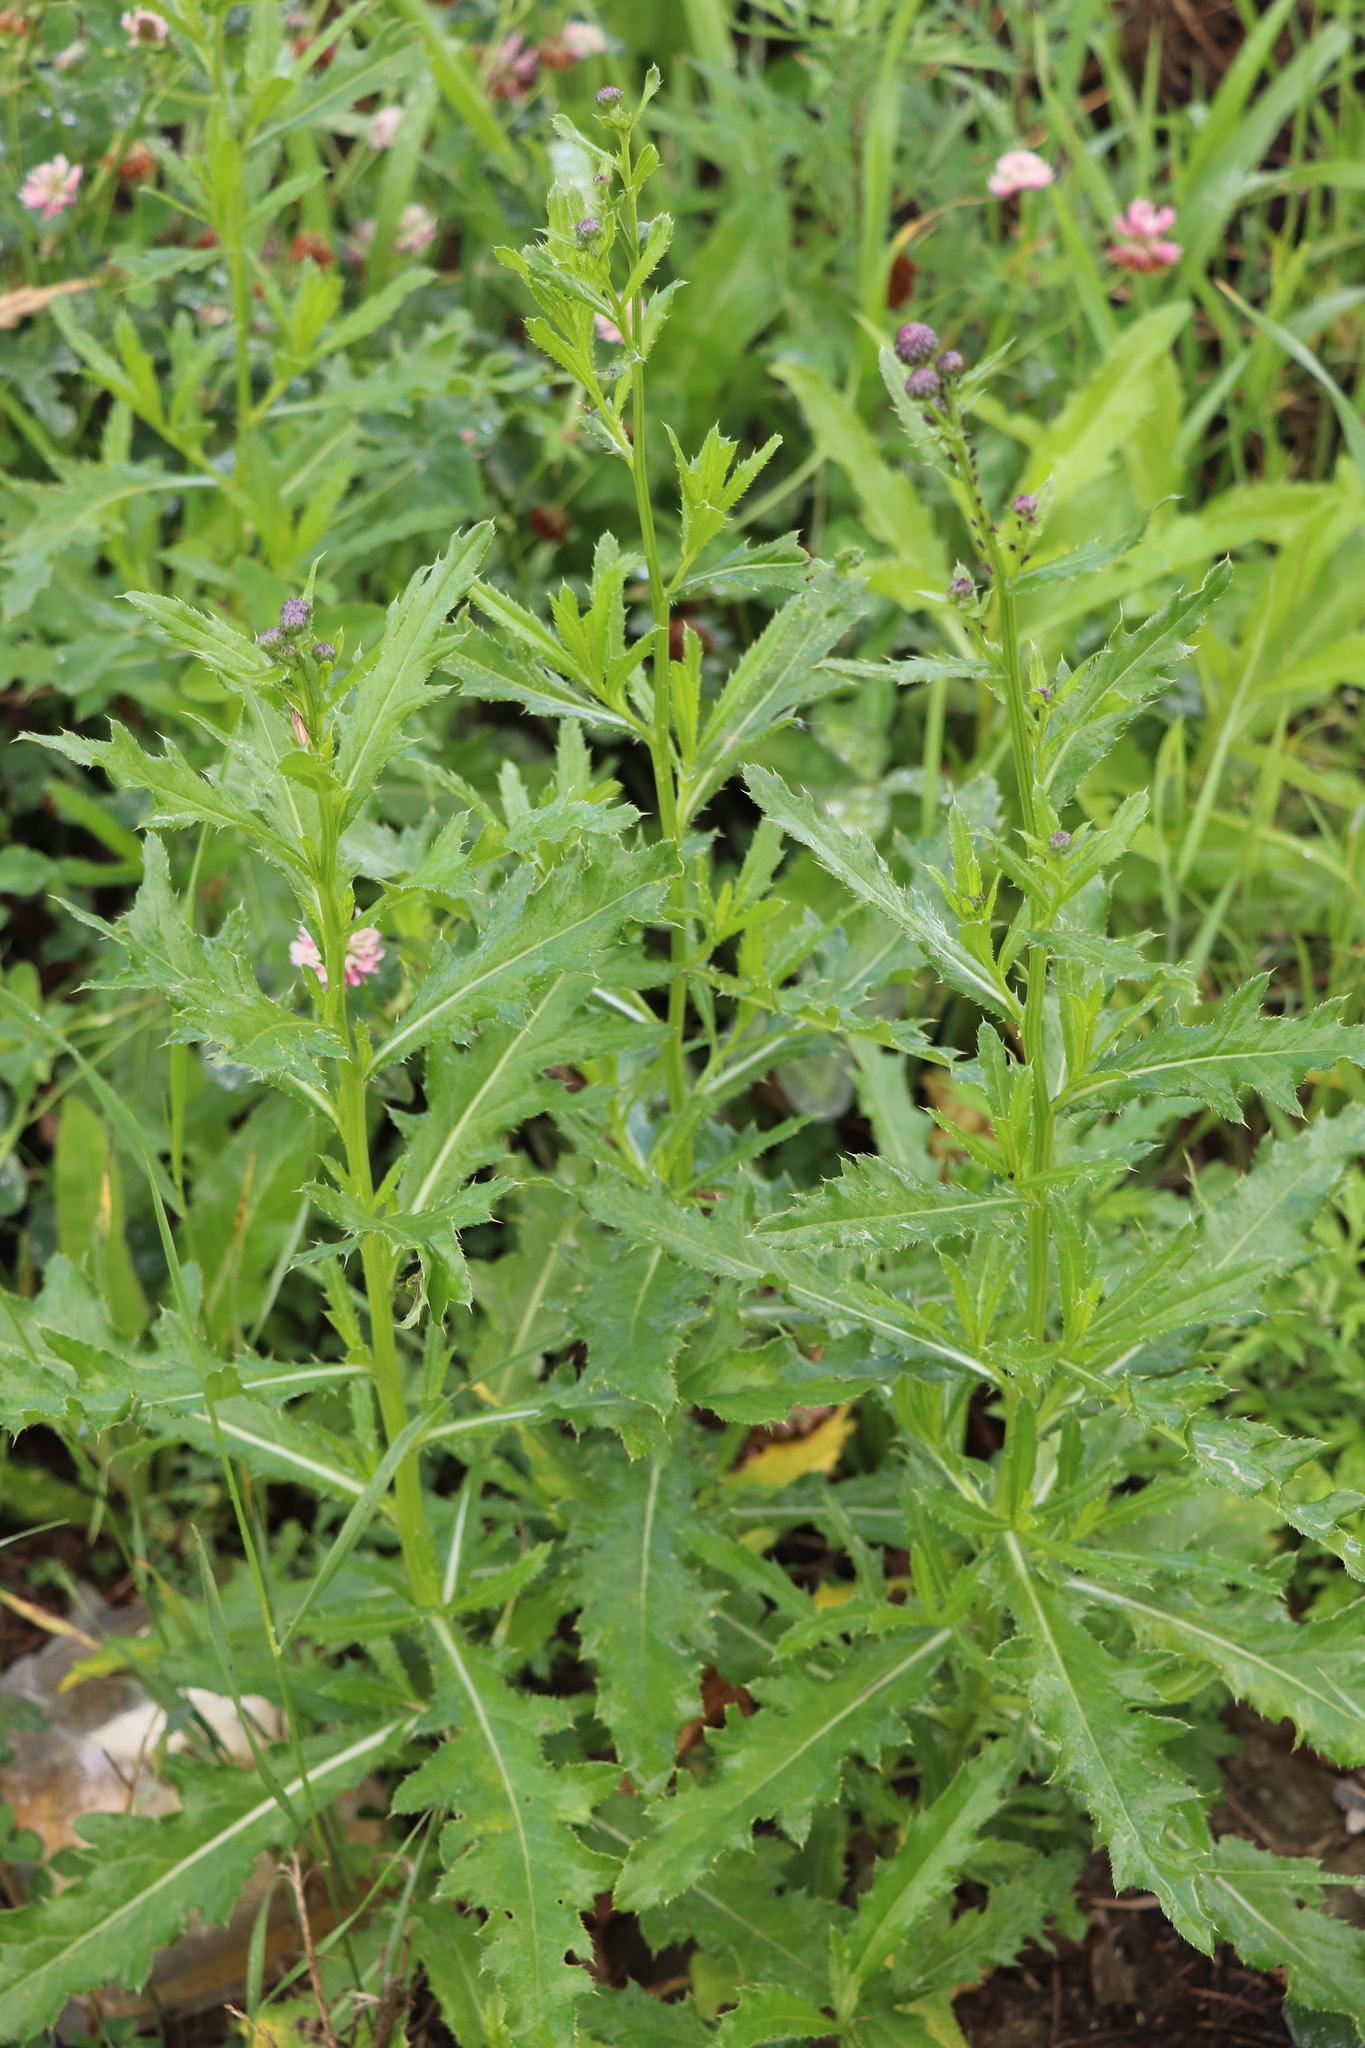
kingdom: Plantae
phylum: Tracheophyta
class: Magnoliopsida
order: Asterales
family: Asteraceae
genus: Cirsium
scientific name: Cirsium arvense
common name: Creeping thistle
